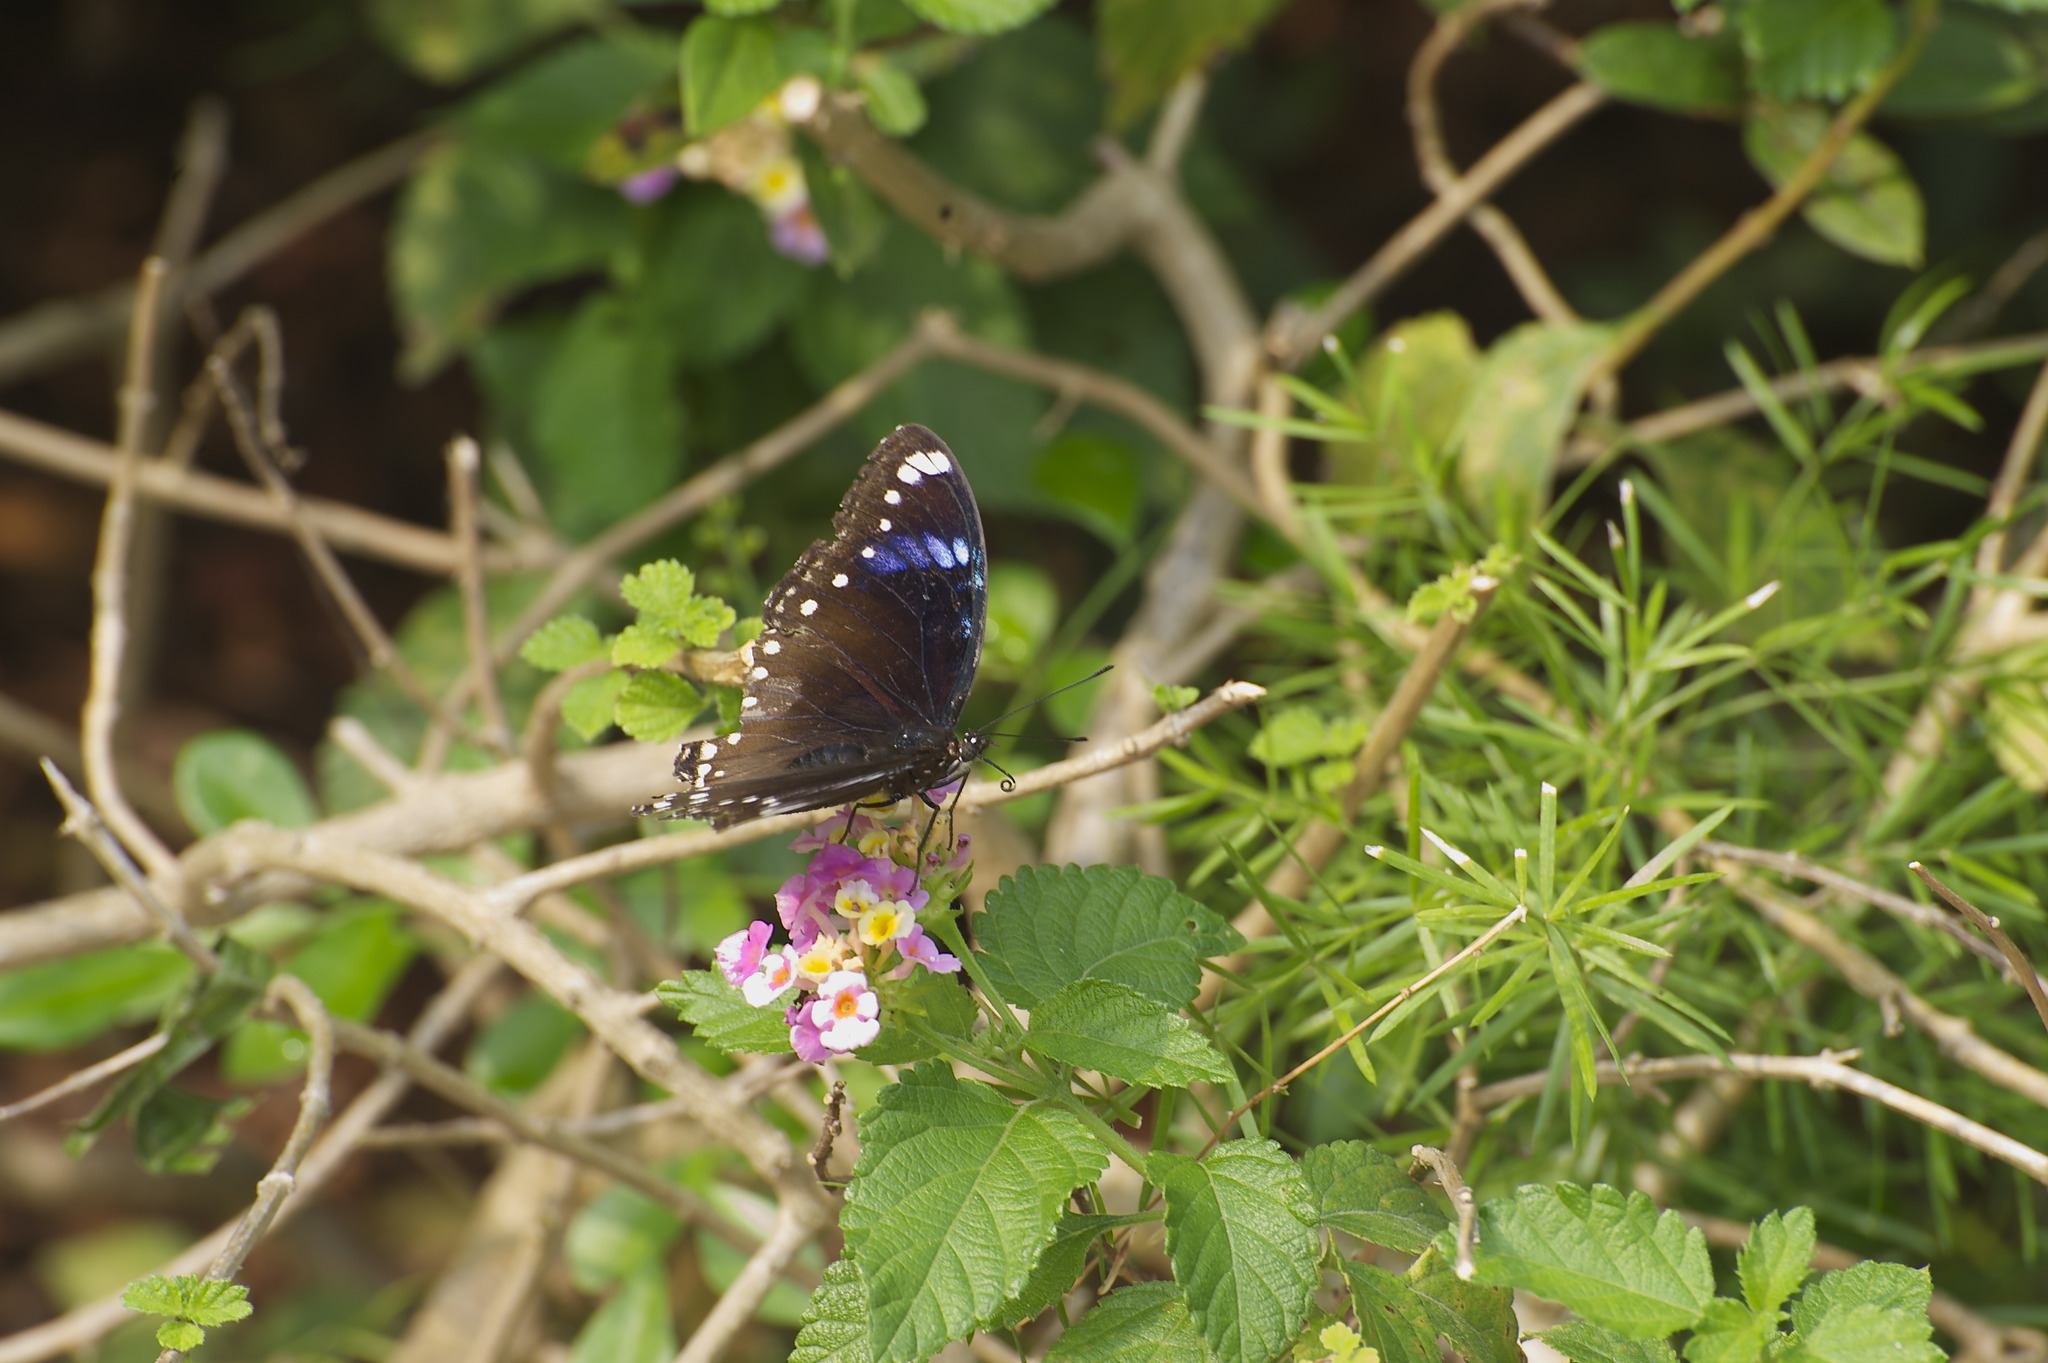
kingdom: Animalia
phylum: Arthropoda
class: Insecta
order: Lepidoptera
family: Nymphalidae
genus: Hypolimnas
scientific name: Hypolimnas bolina
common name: Great eggfly
